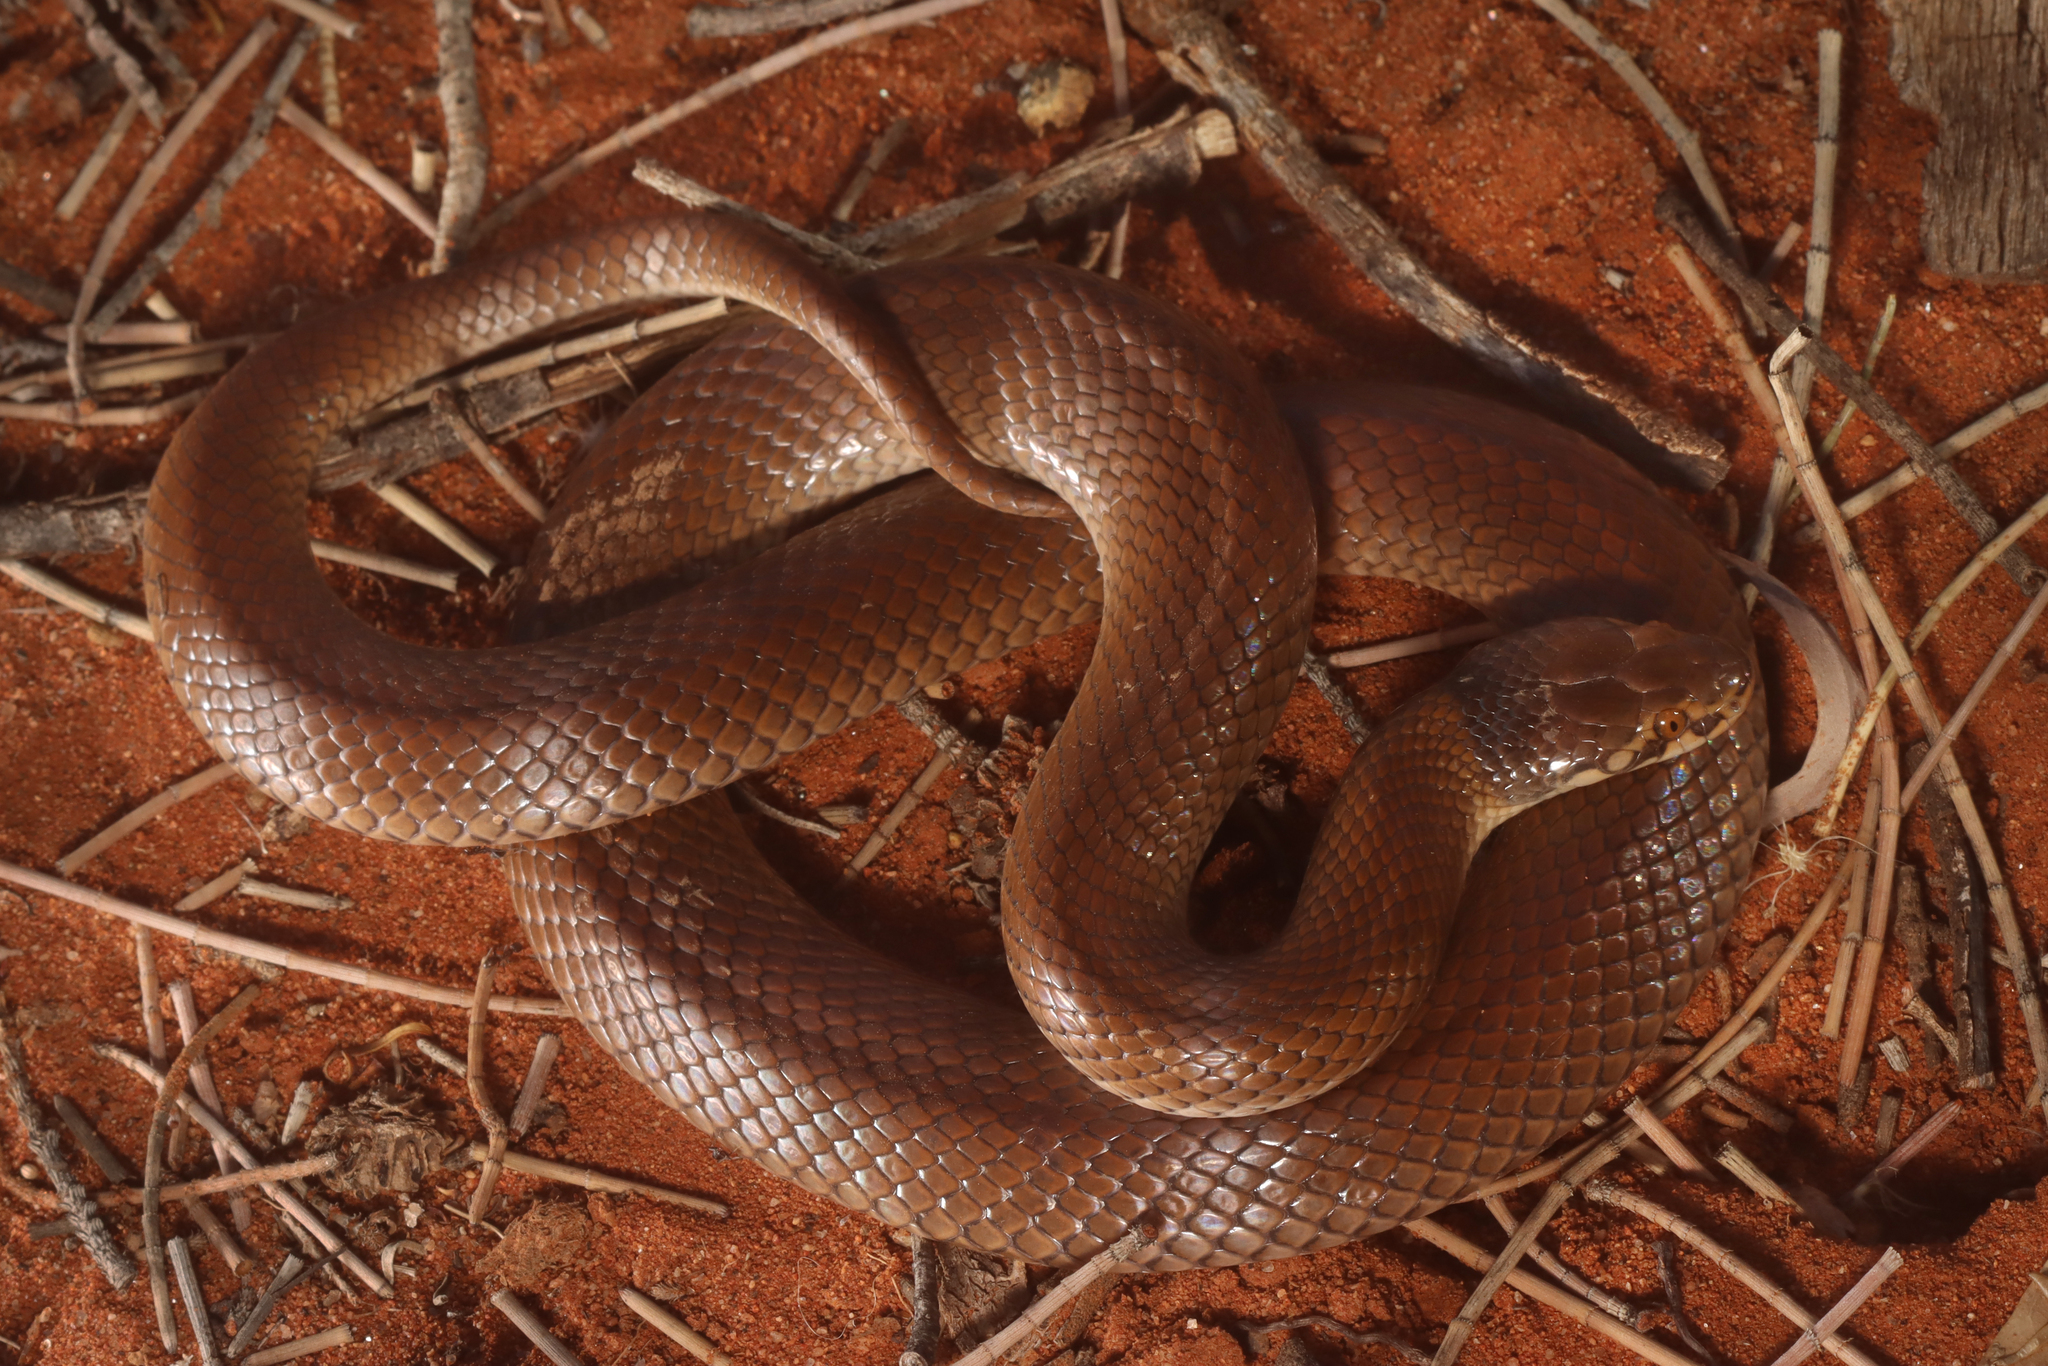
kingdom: Animalia
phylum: Chordata
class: Squamata
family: Elapidae
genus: Suta
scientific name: Suta suta
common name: Curl snake
